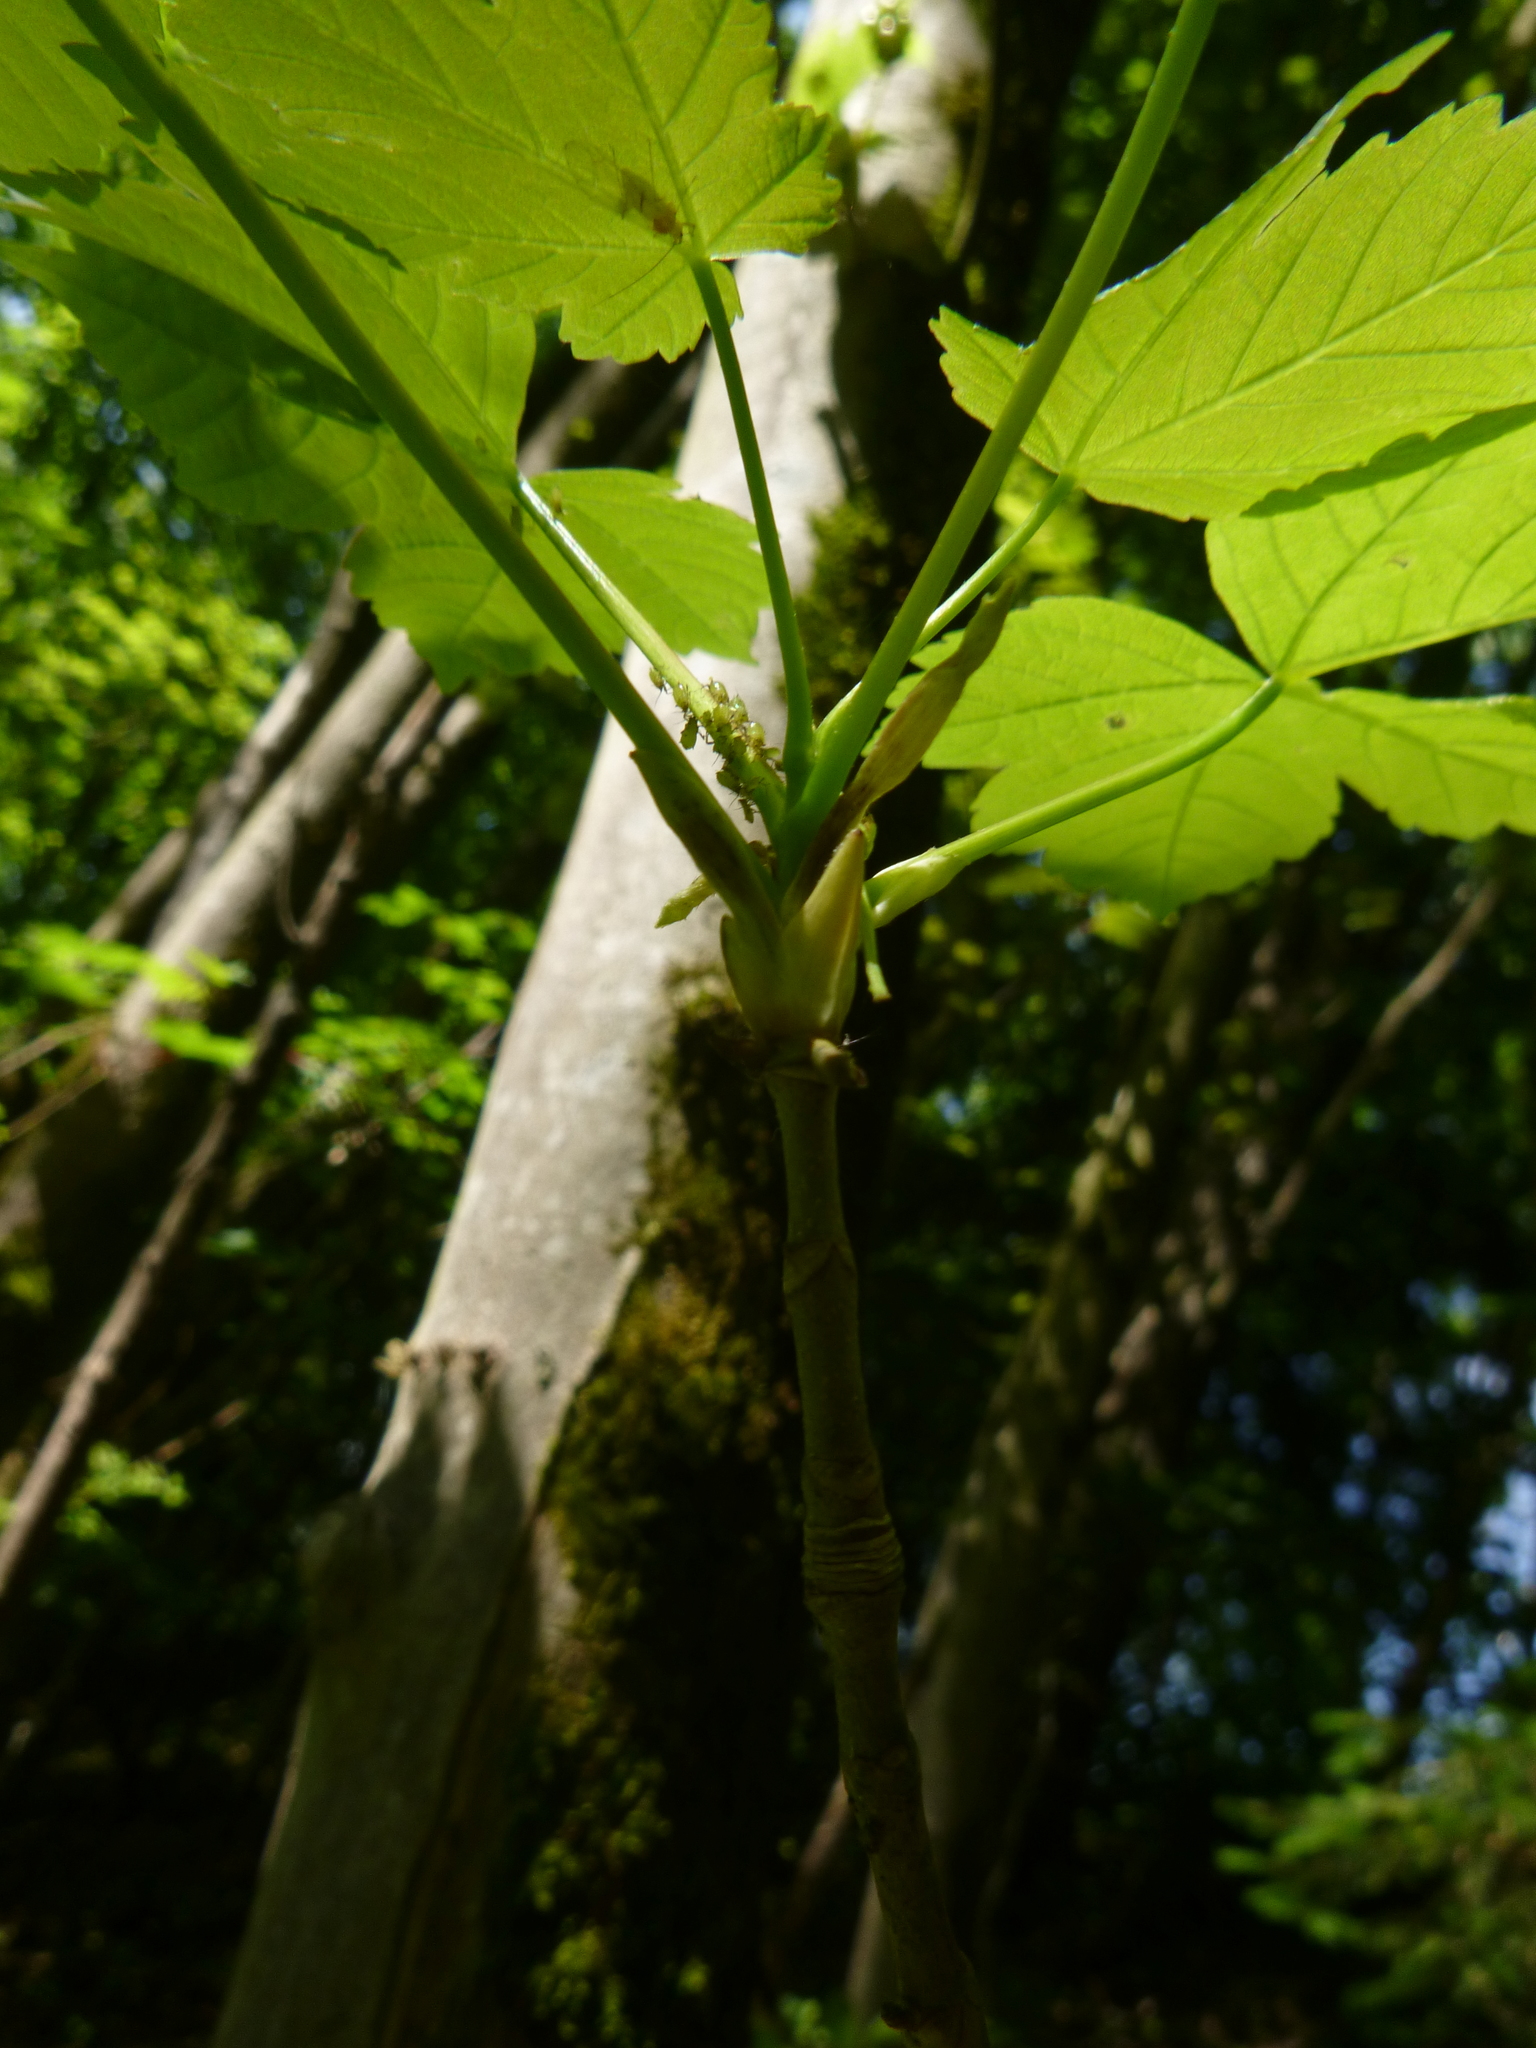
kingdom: Plantae
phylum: Tracheophyta
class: Magnoliopsida
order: Sapindales
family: Sapindaceae
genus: Acer
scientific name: Acer pseudoplatanus
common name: Sycamore
